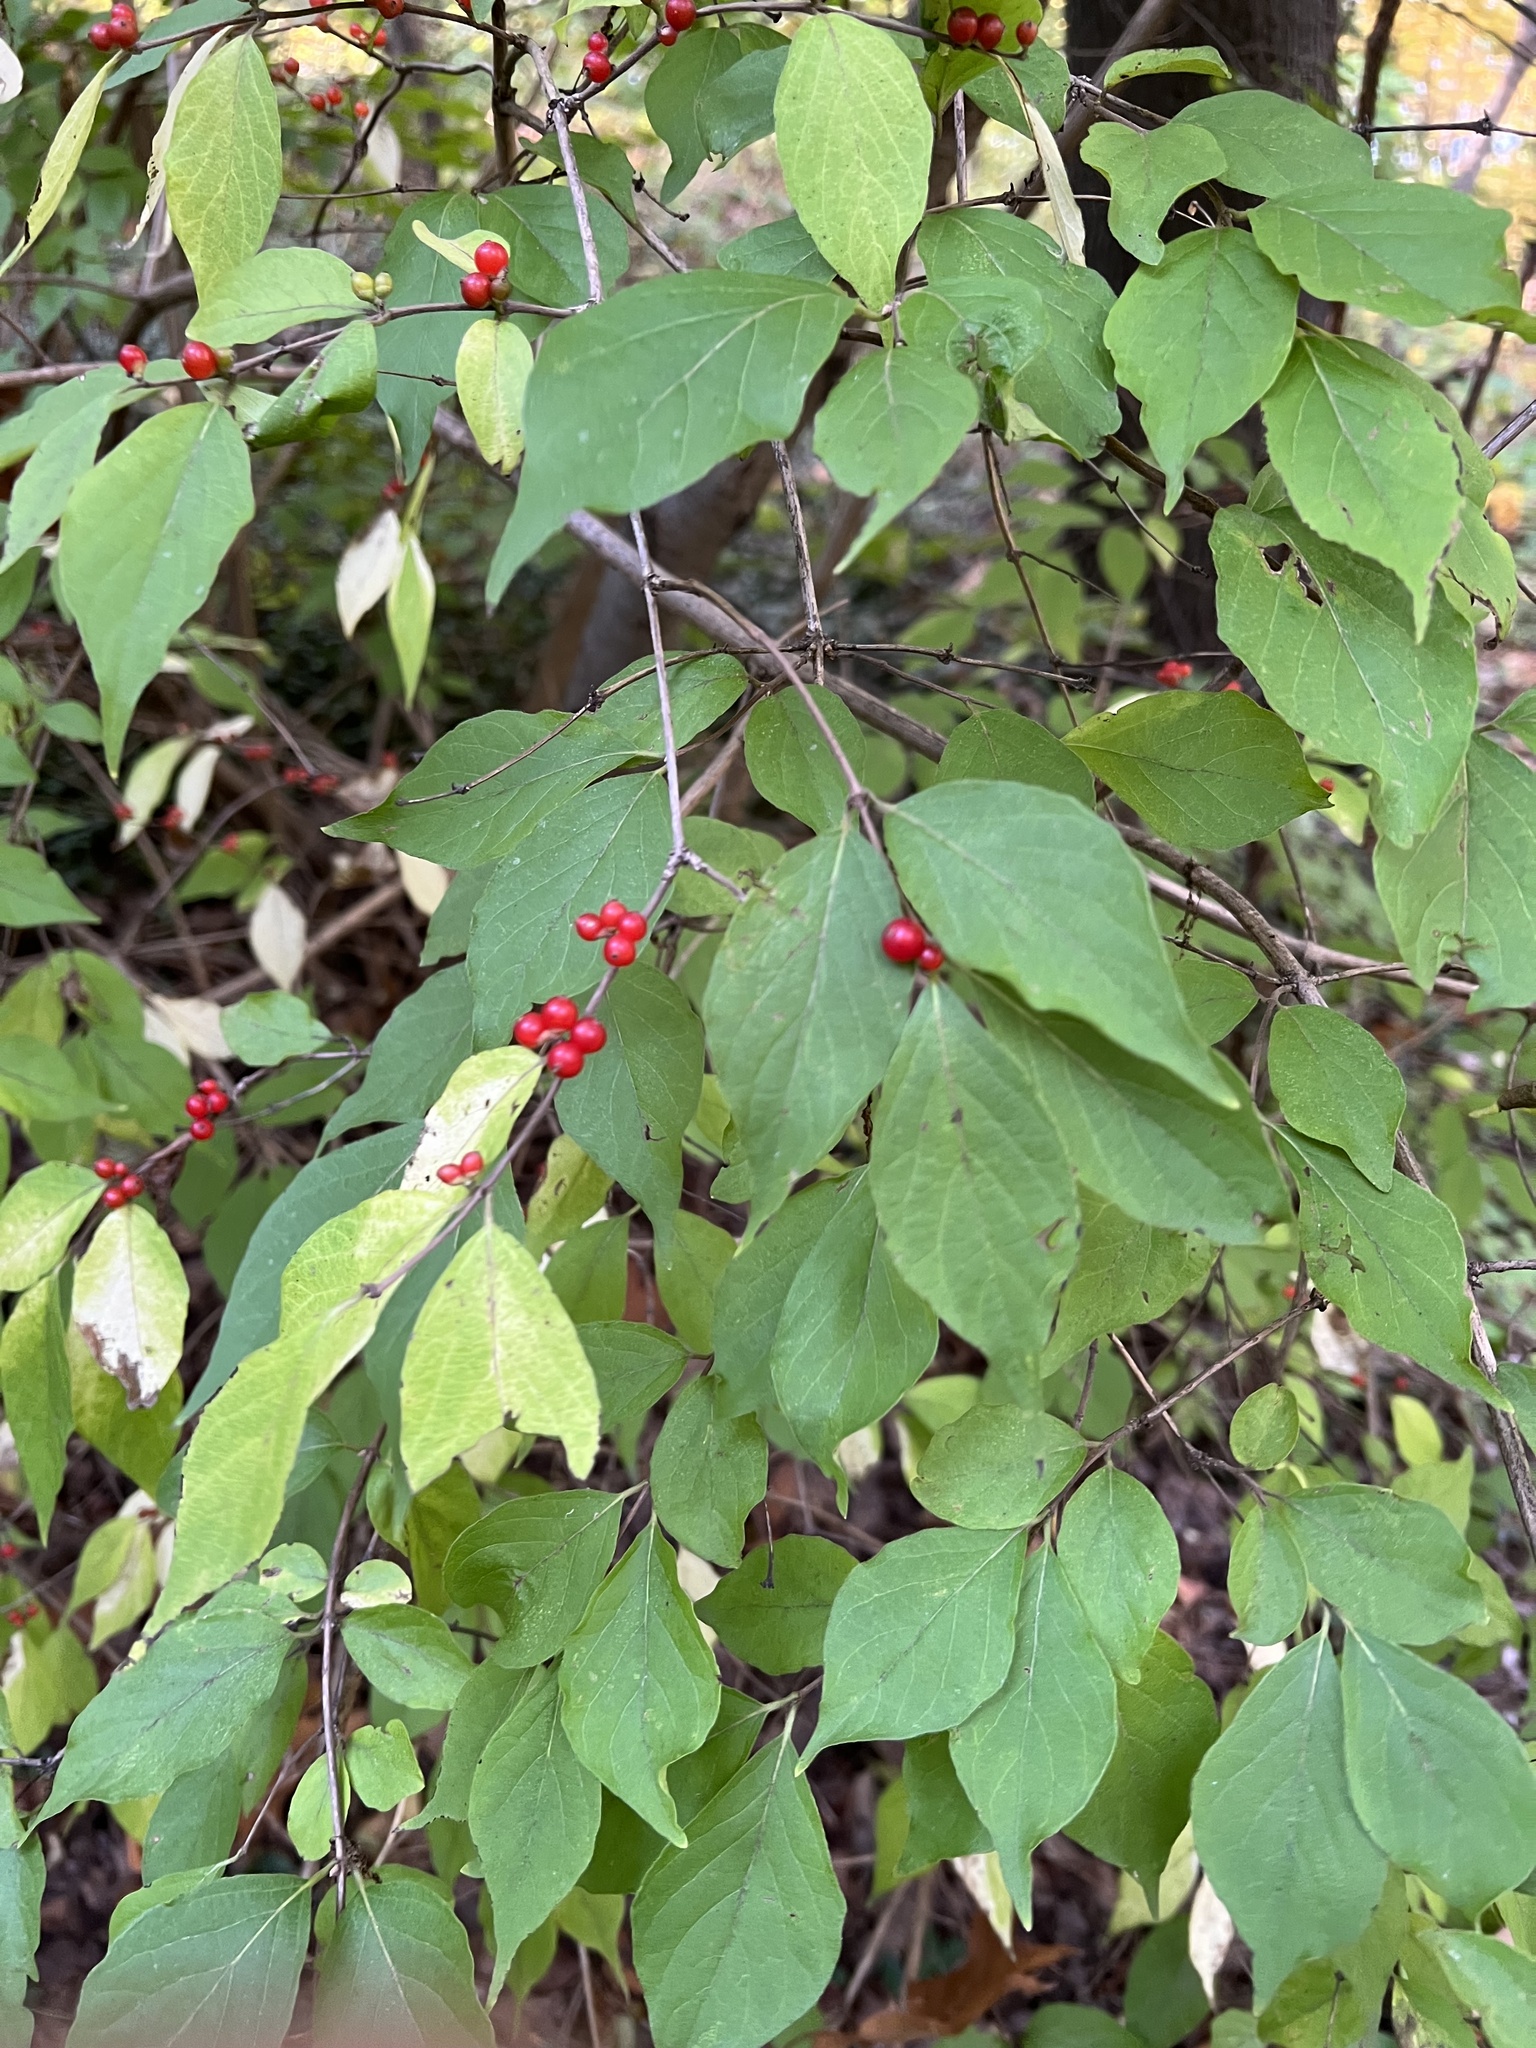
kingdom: Plantae
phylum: Tracheophyta
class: Magnoliopsida
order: Dipsacales
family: Caprifoliaceae
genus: Lonicera
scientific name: Lonicera maackii
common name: Amur honeysuckle
